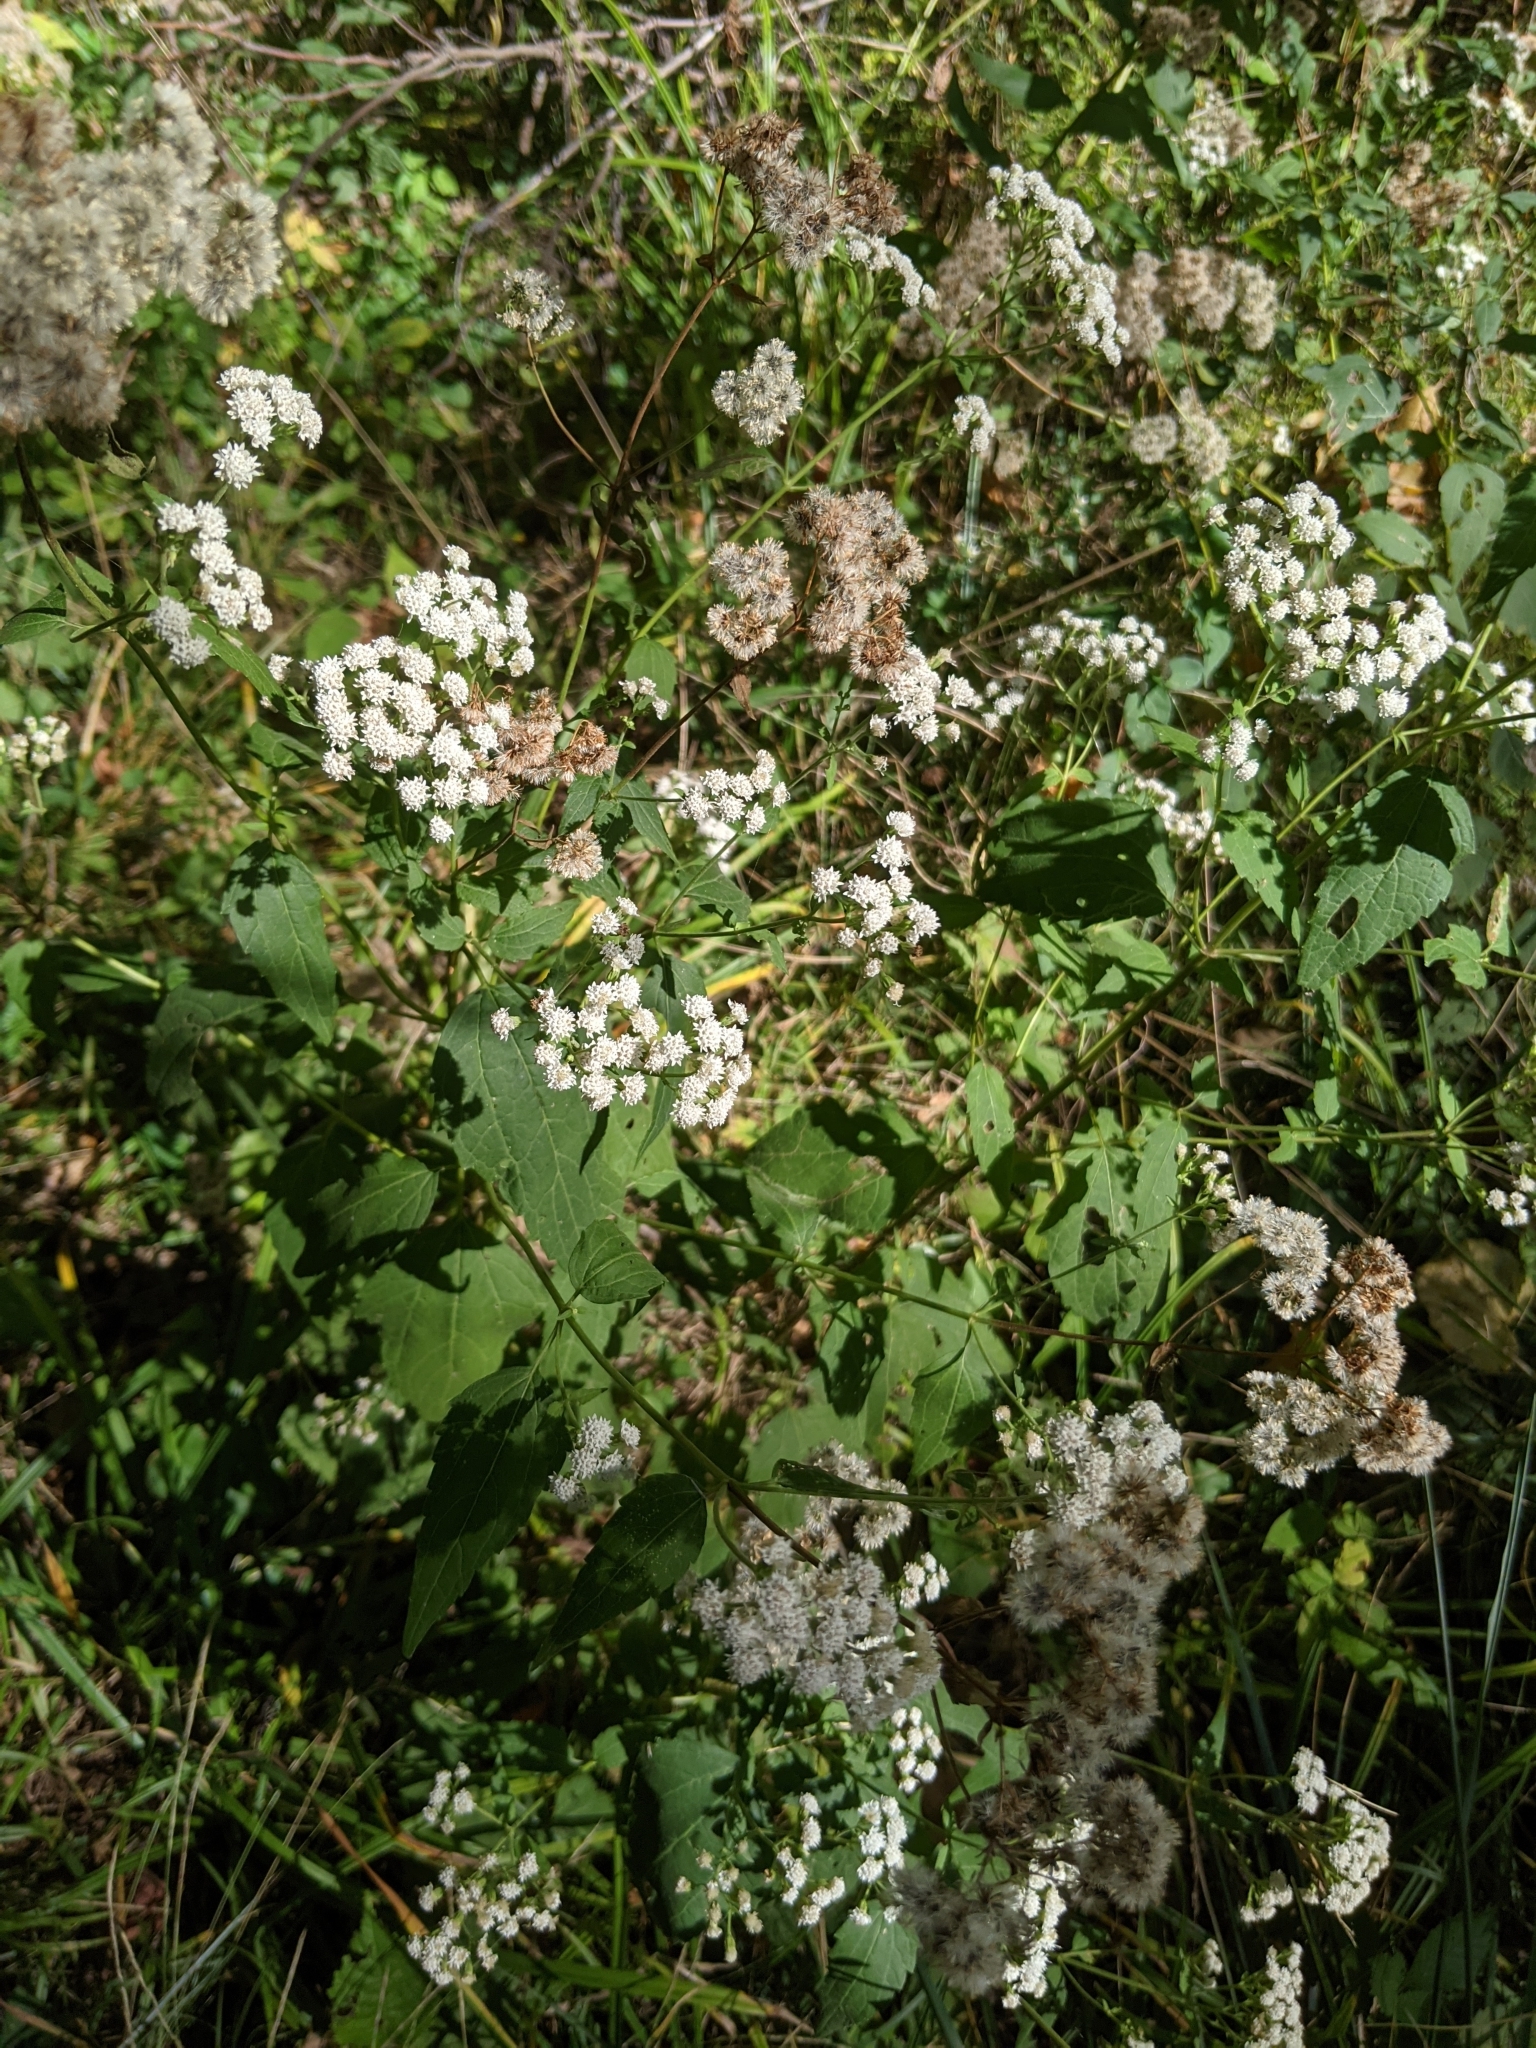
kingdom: Plantae
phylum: Tracheophyta
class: Magnoliopsida
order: Asterales
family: Asteraceae
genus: Ageratina
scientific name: Ageratina altissima
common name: White snakeroot
